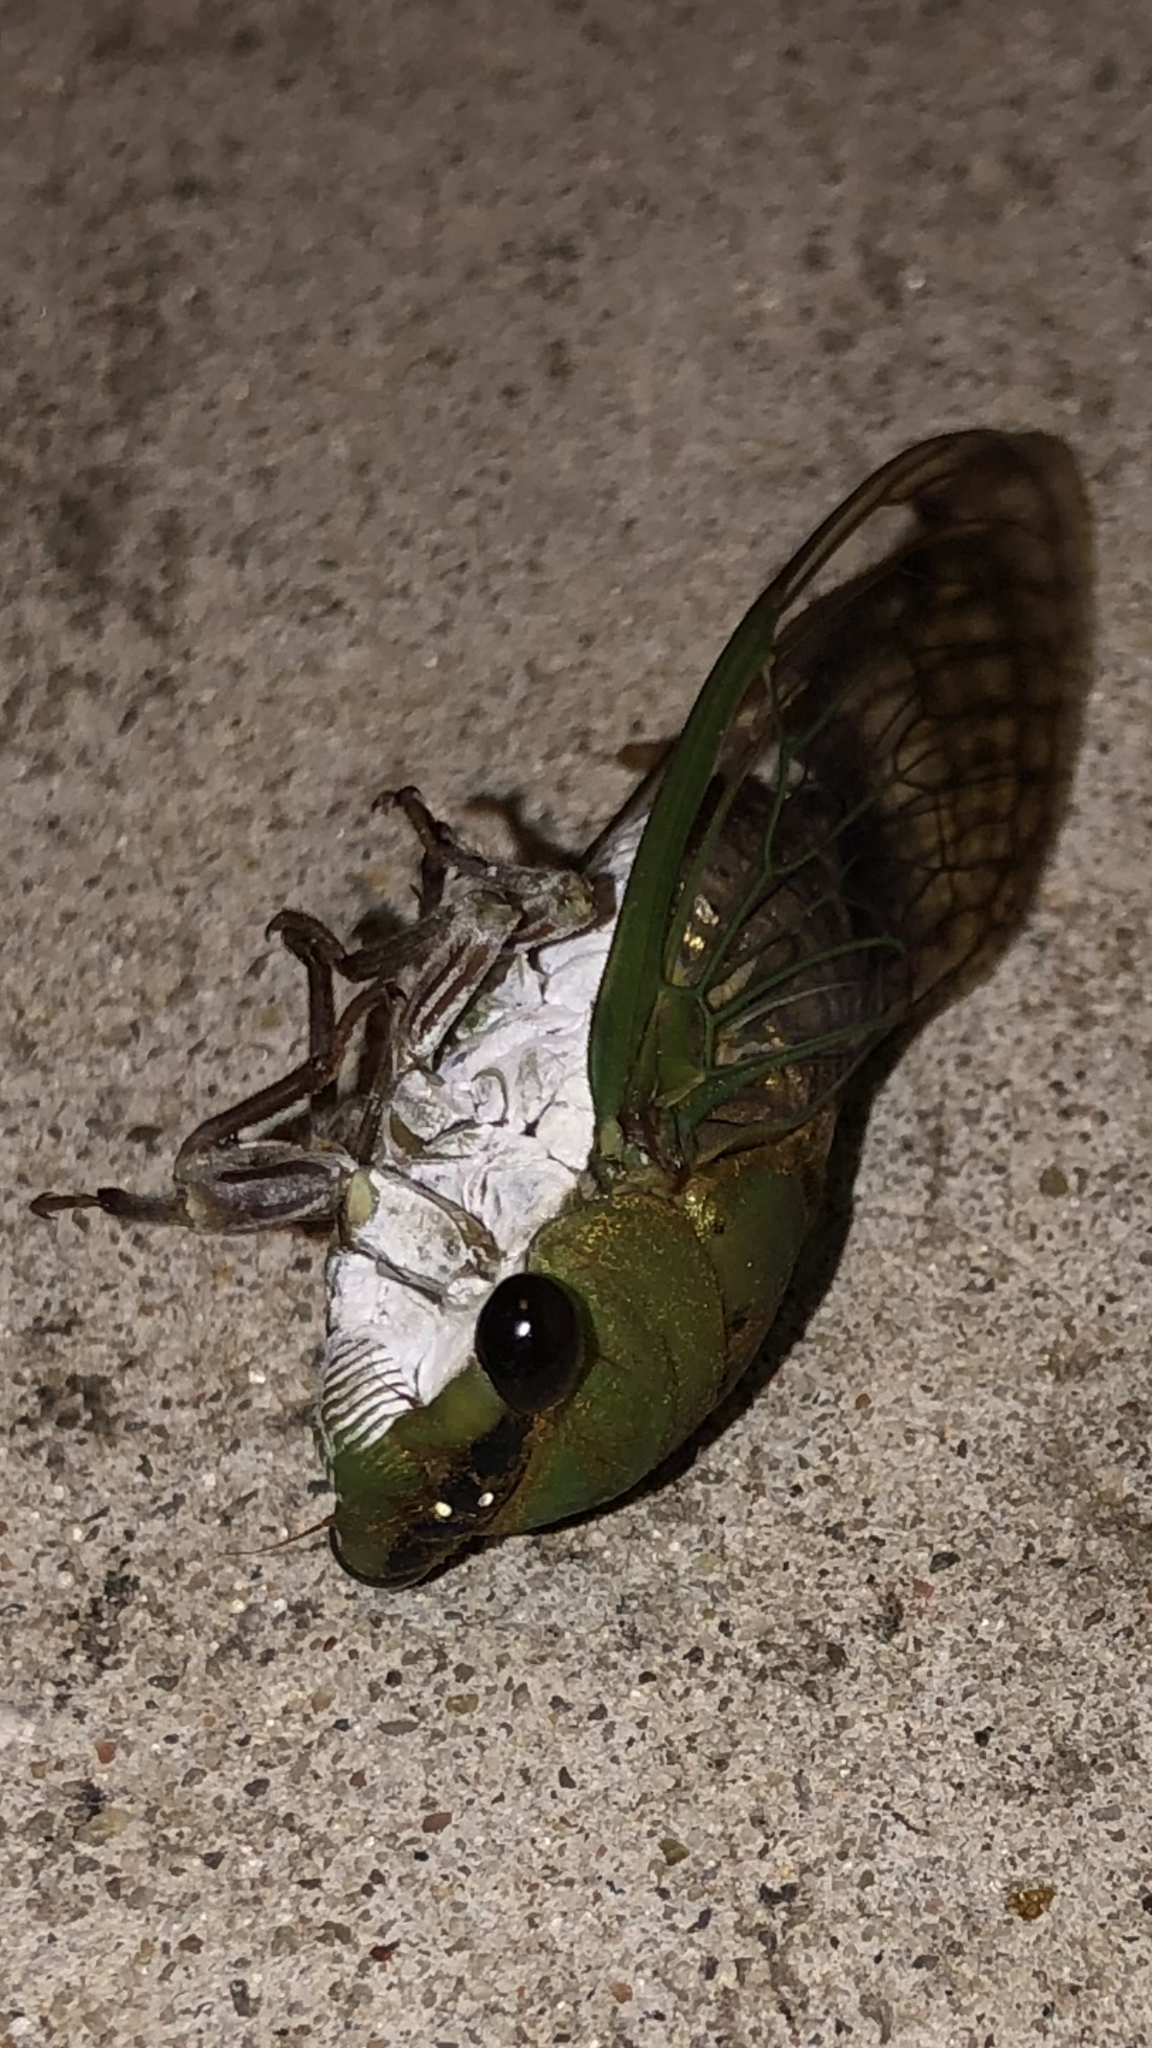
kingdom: Animalia
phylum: Arthropoda
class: Insecta
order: Hemiptera
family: Cicadidae
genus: Neotibicen
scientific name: Neotibicen superbus
